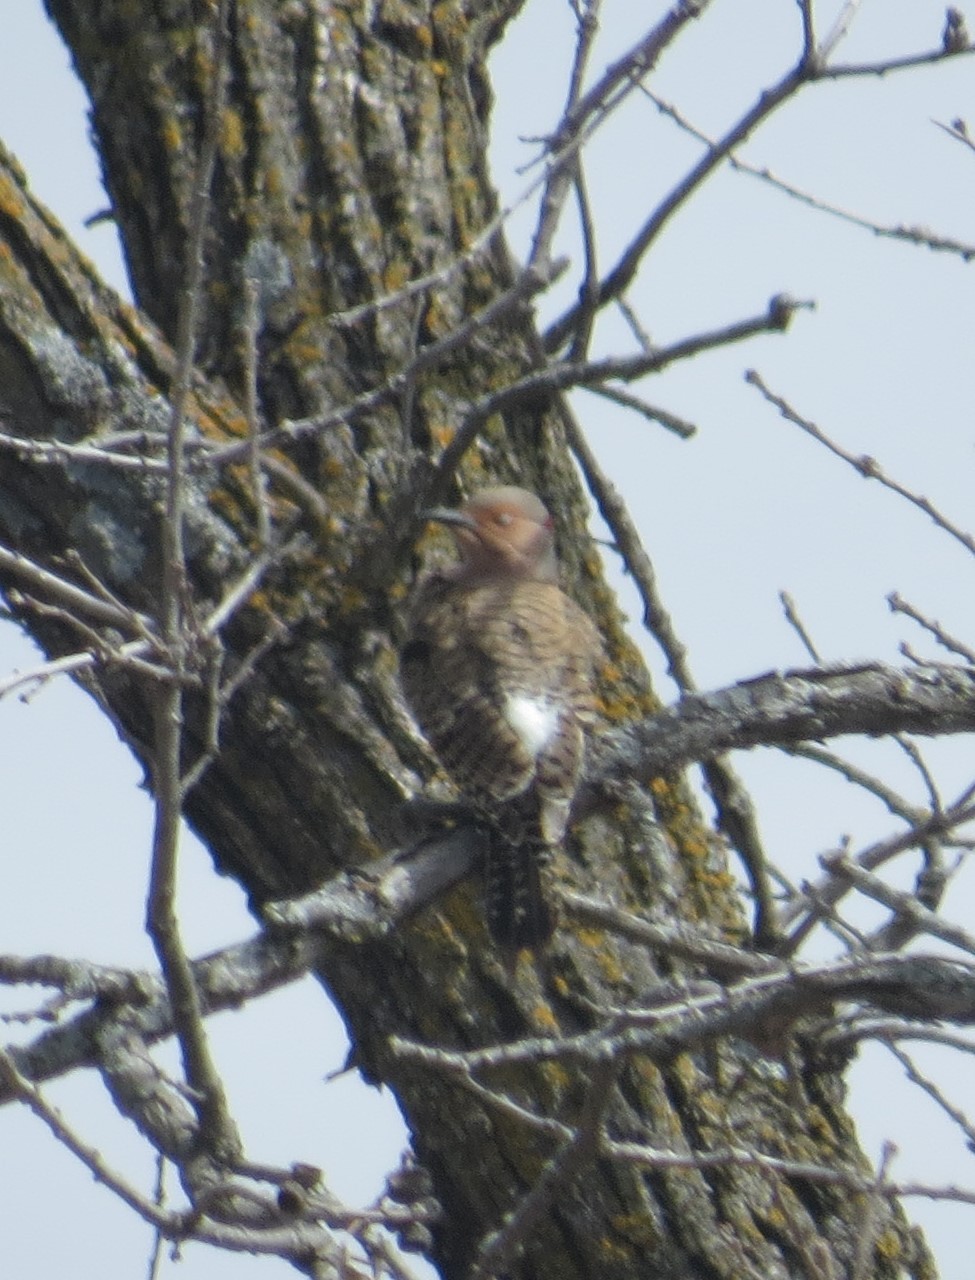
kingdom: Animalia
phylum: Chordata
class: Aves
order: Piciformes
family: Picidae
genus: Colaptes
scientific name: Colaptes auratus
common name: Northern flicker
